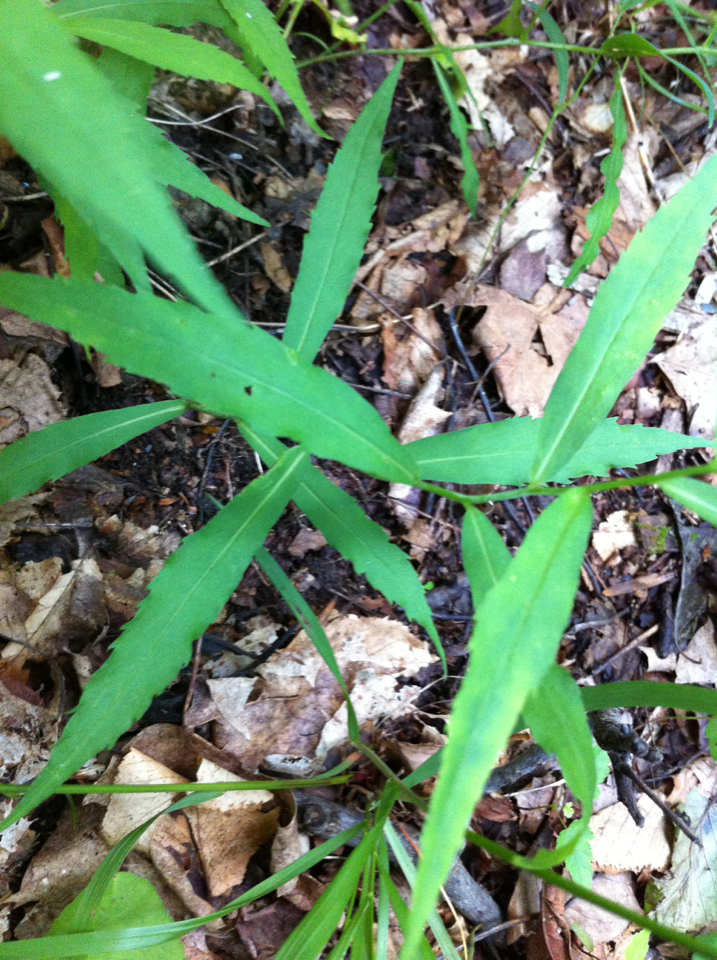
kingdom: Plantae
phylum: Tracheophyta
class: Magnoliopsida
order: Asterales
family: Asteraceae
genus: Solidago
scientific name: Solidago caesia
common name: Woodland goldenrod
